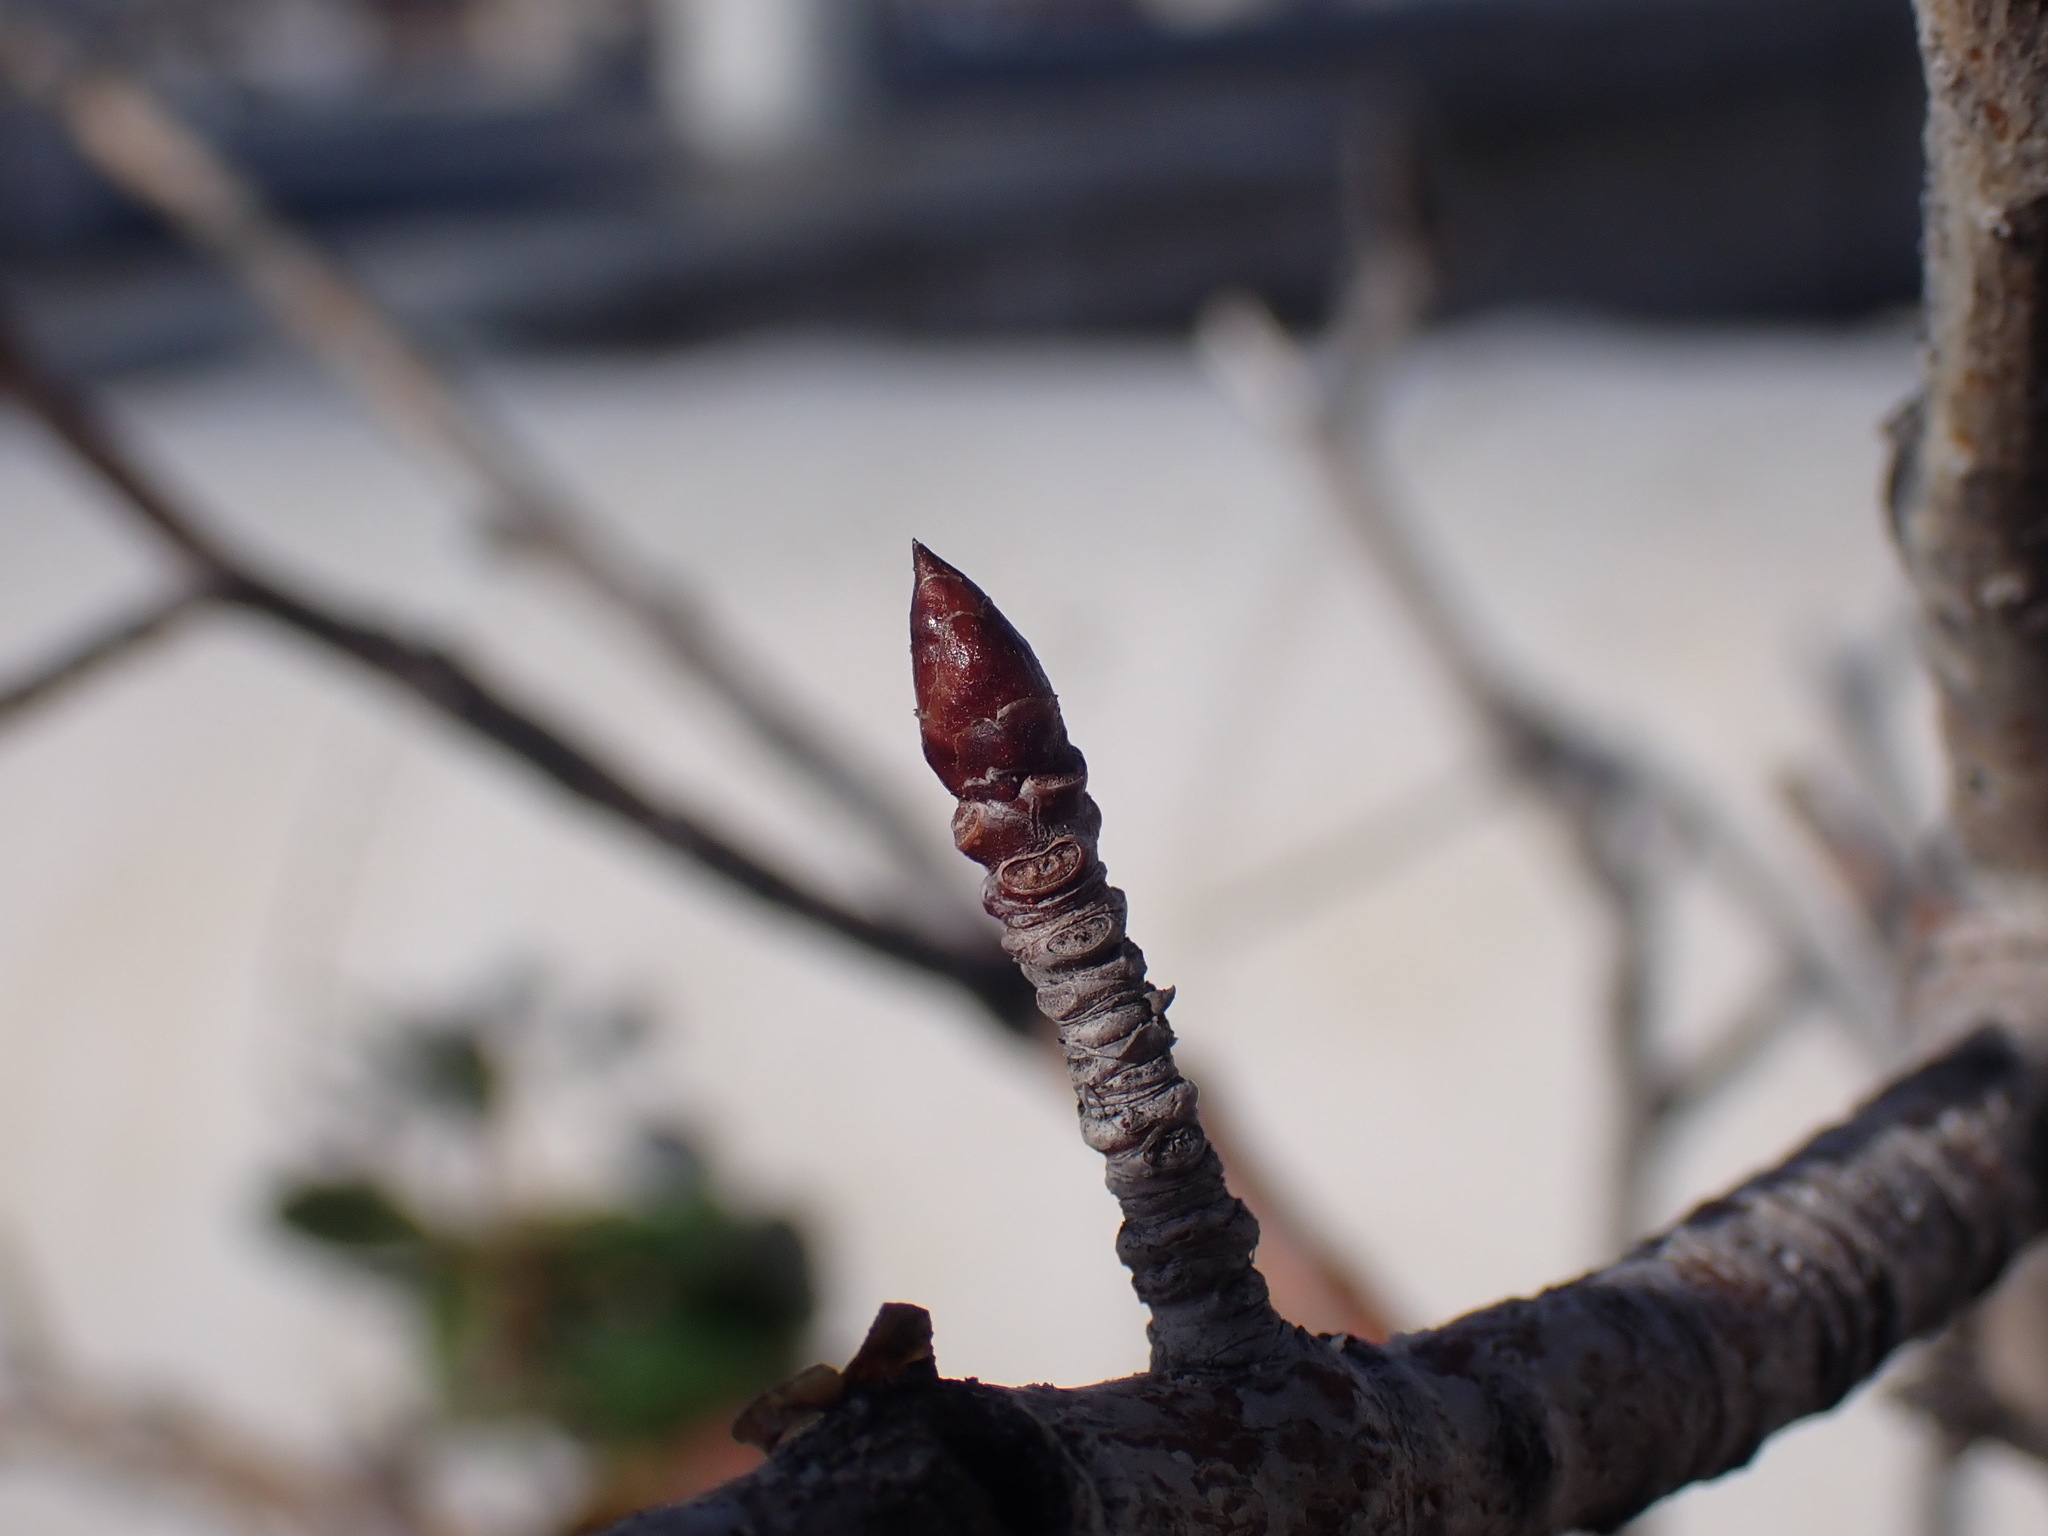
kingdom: Plantae
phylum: Tracheophyta
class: Magnoliopsida
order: Malpighiales
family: Salicaceae
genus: Populus
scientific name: Populus tremula
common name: European aspen
